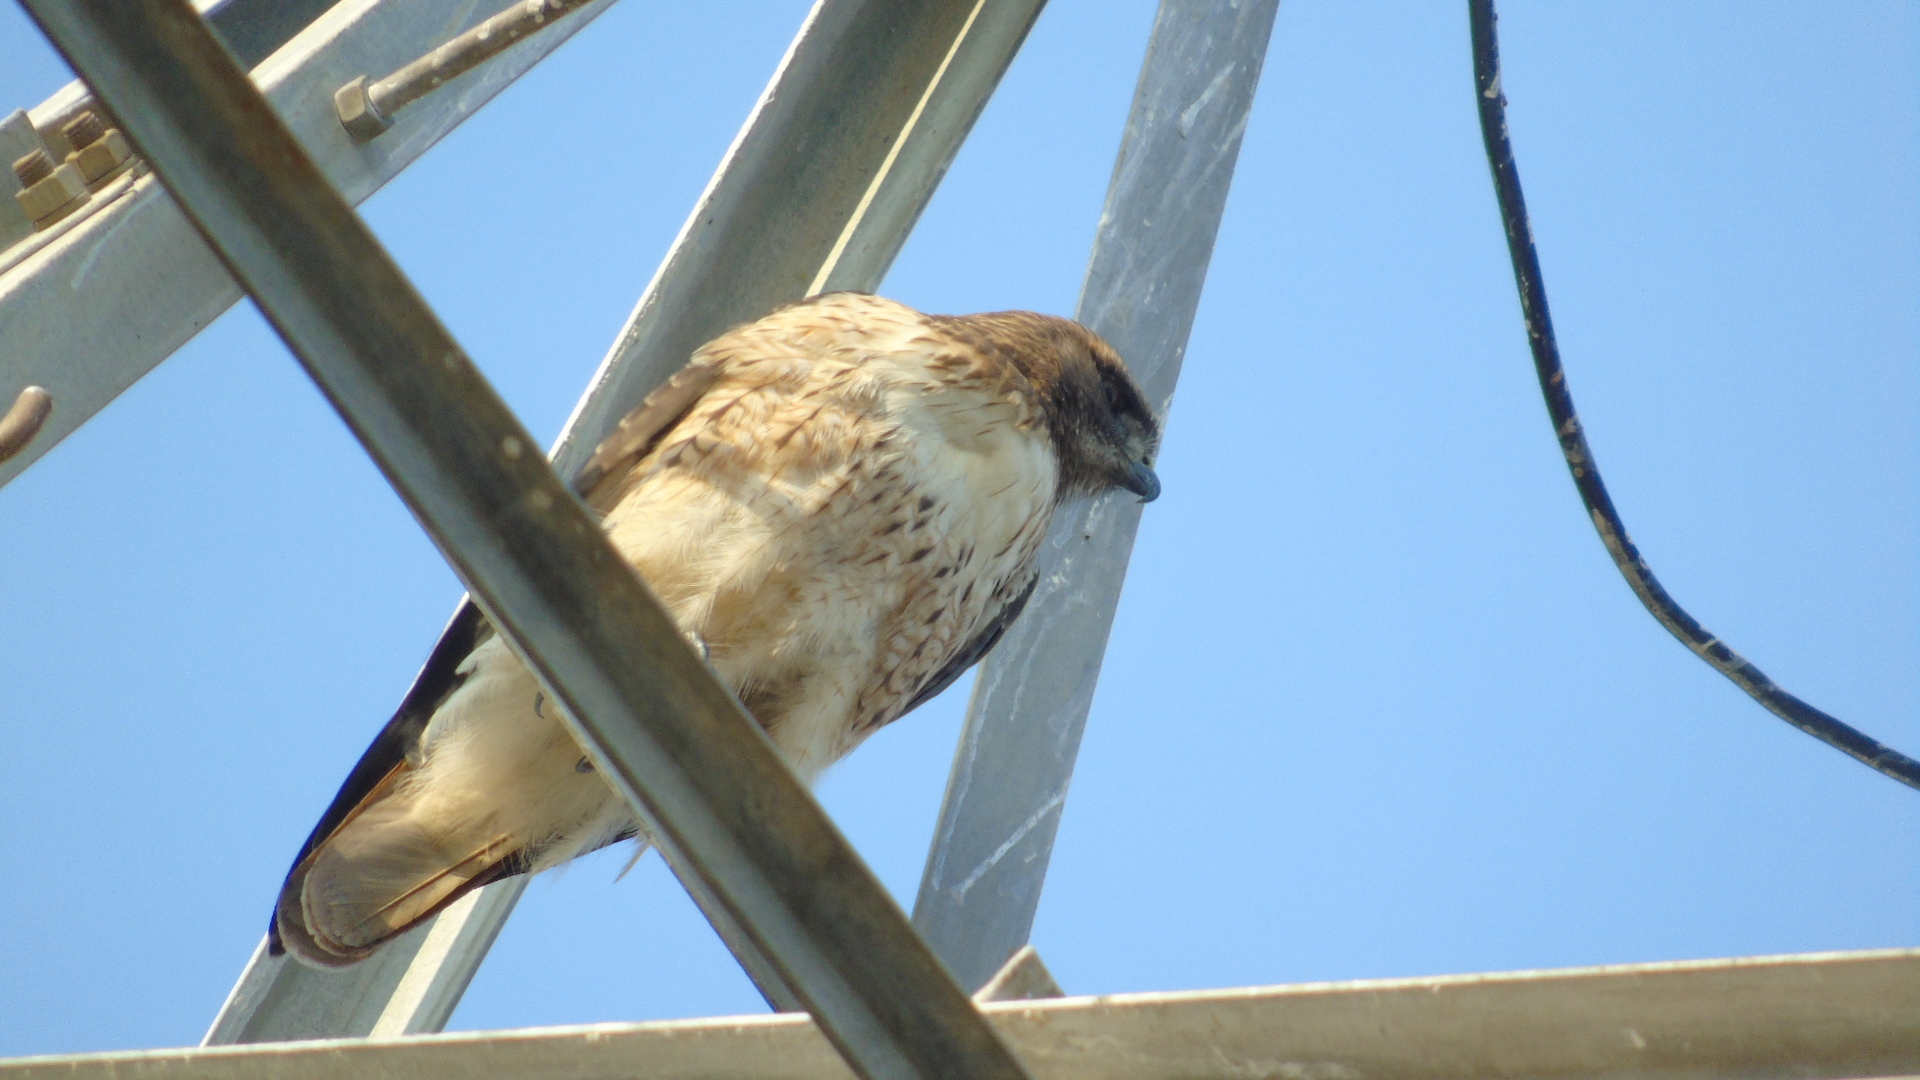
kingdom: Animalia
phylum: Chordata
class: Aves
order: Accipitriformes
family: Accipitridae
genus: Buteo
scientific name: Buteo jamaicensis
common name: Red-tailed hawk
